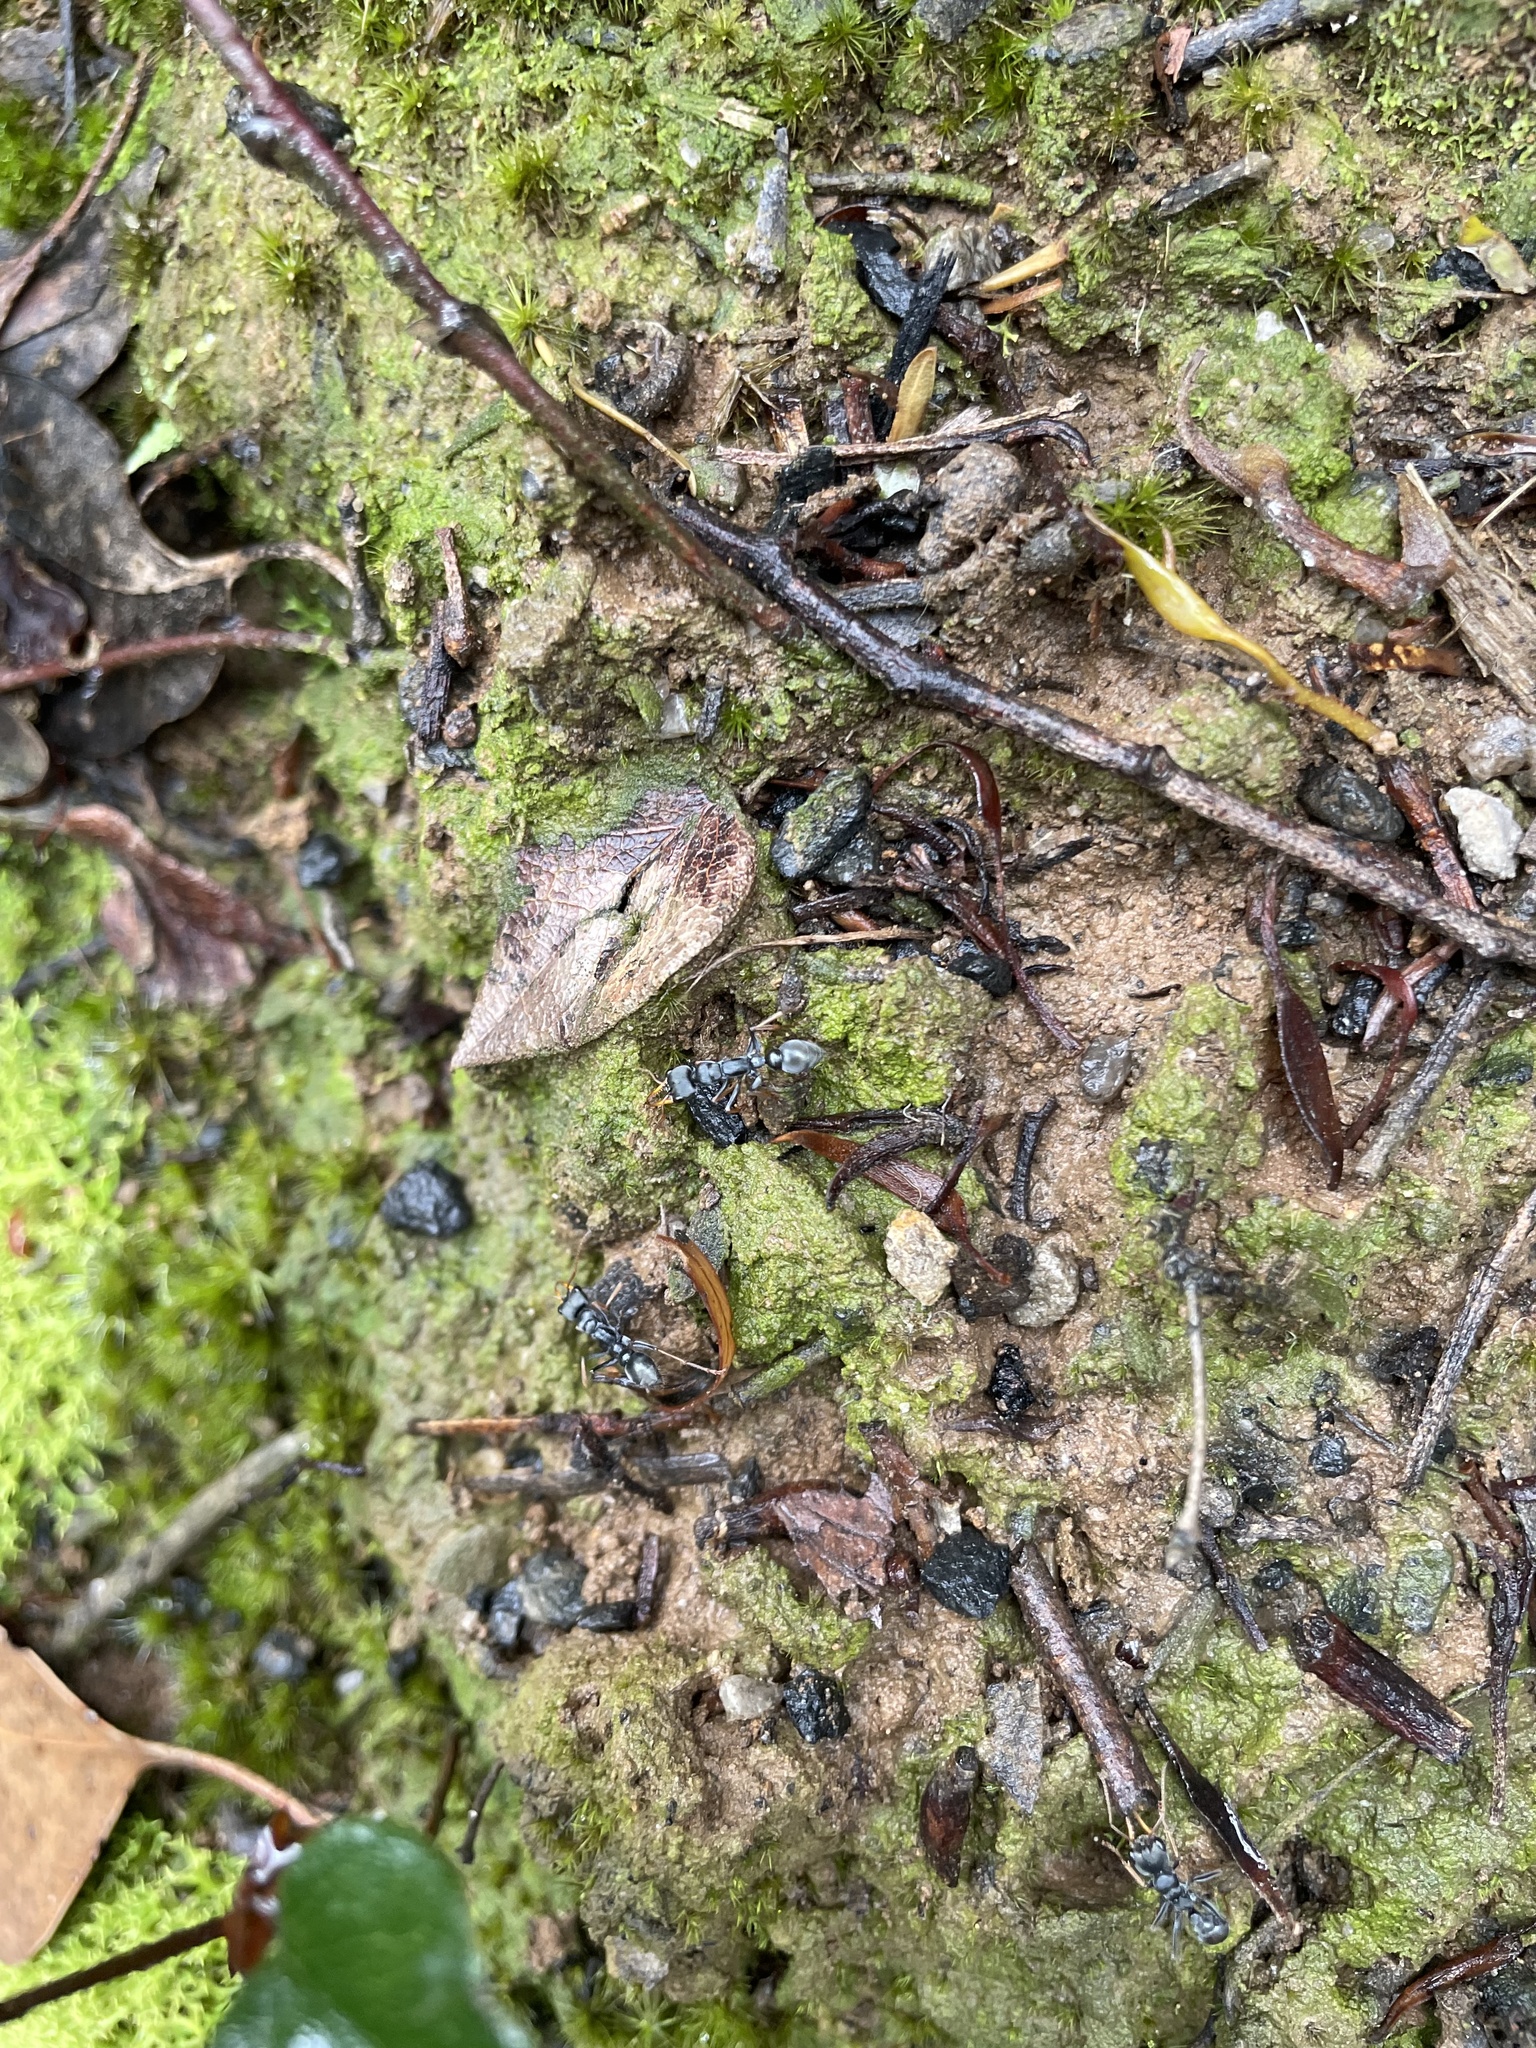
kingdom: Animalia
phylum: Arthropoda
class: Insecta
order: Hymenoptera
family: Formicidae
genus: Myrmecia
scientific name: Myrmecia pilosula
